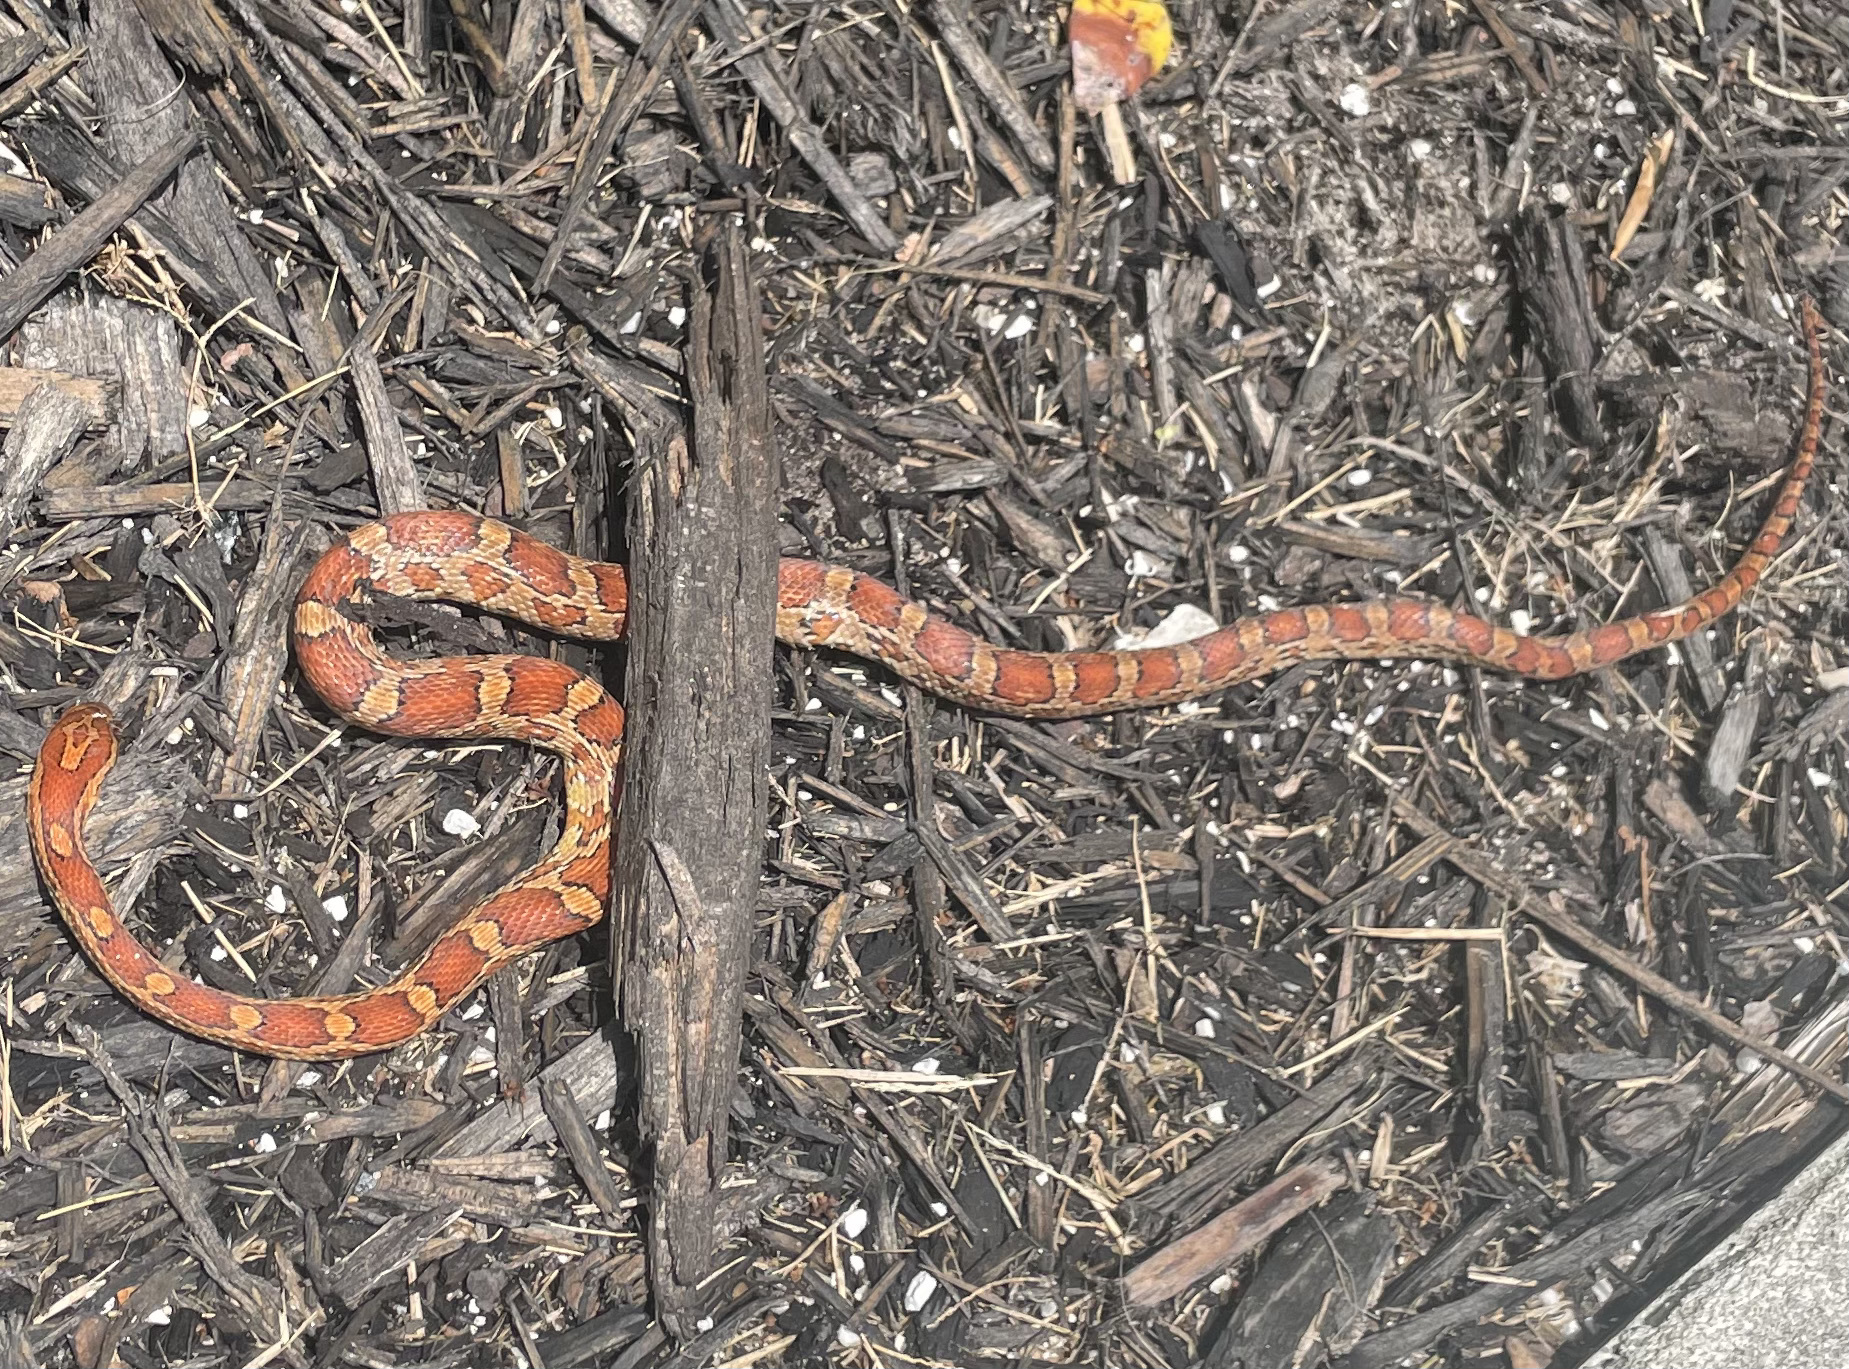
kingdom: Animalia
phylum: Chordata
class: Squamata
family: Colubridae
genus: Pantherophis
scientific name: Pantherophis guttatus
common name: Red cornsnake
